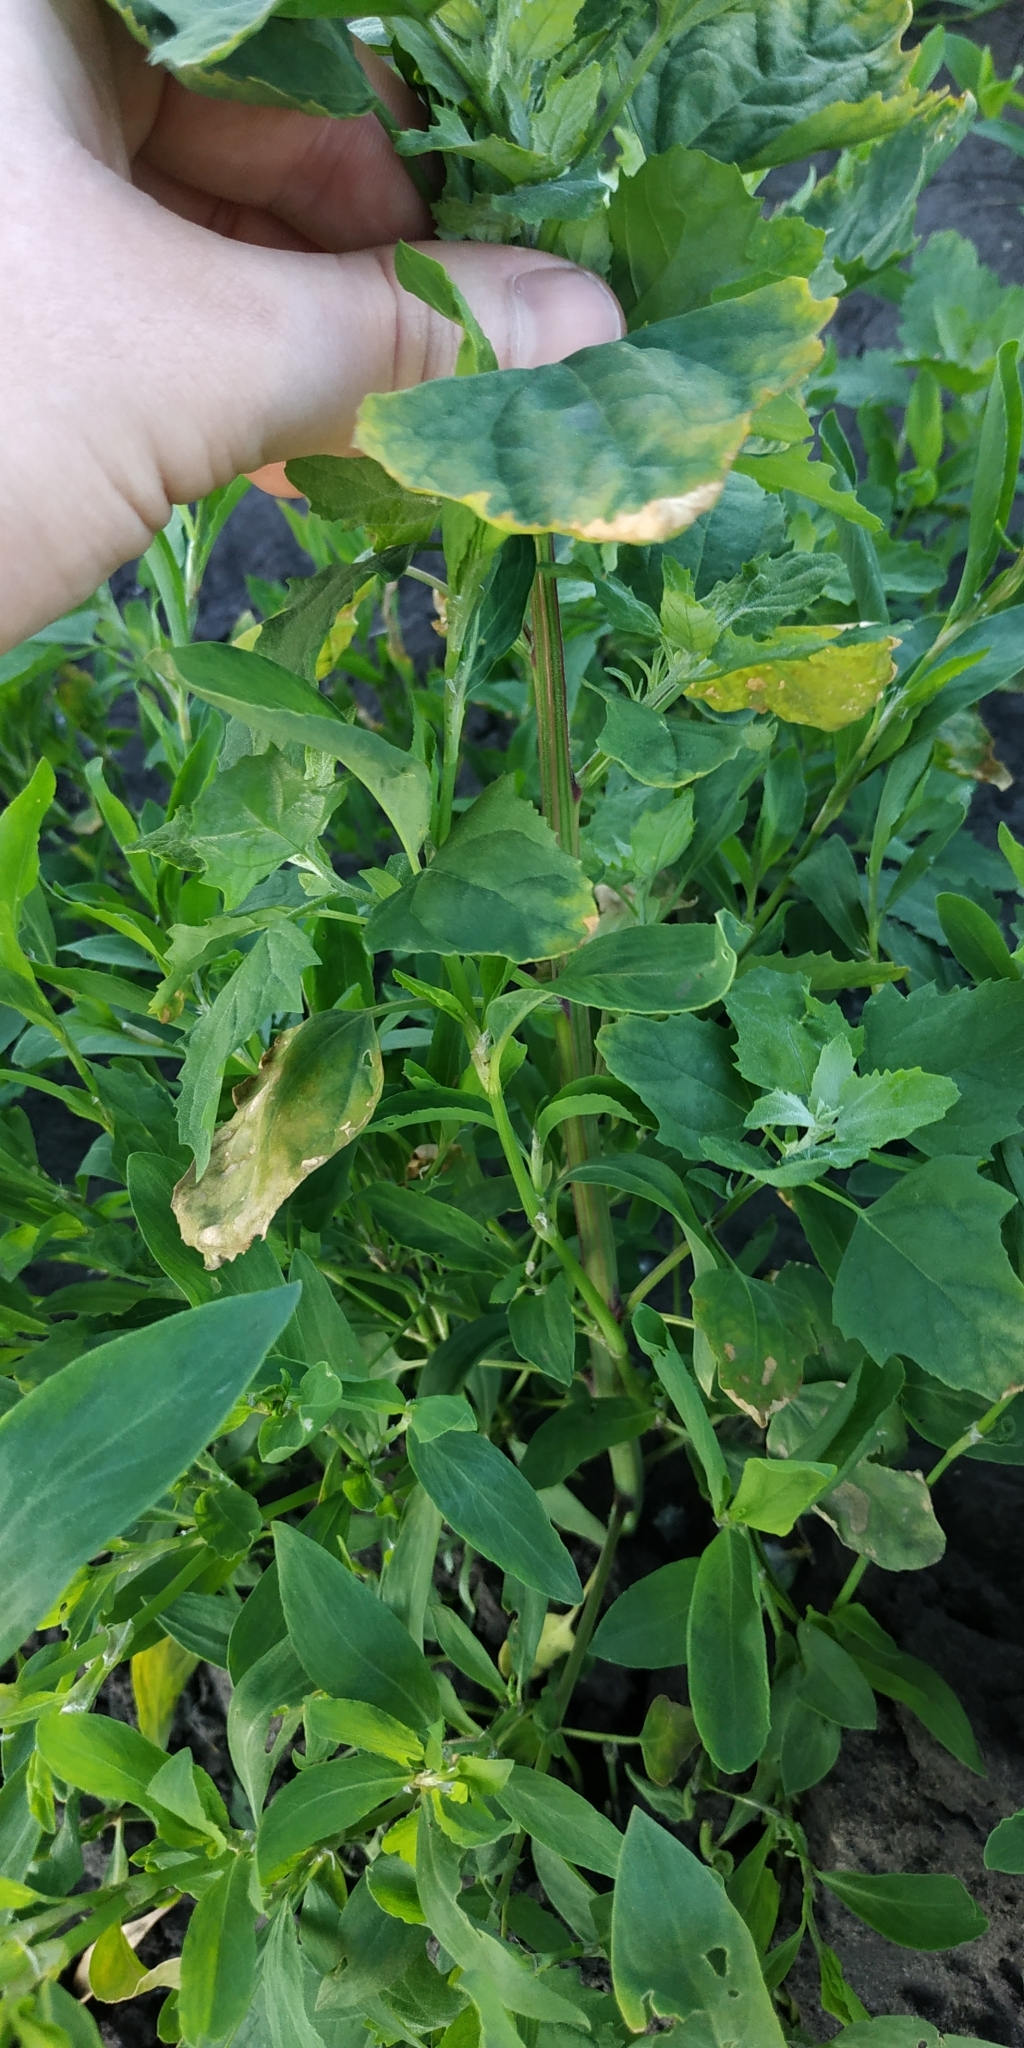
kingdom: Plantae
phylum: Tracheophyta
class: Magnoliopsida
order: Caryophyllales
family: Amaranthaceae
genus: Chenopodium
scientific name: Chenopodium album
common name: Fat-hen
